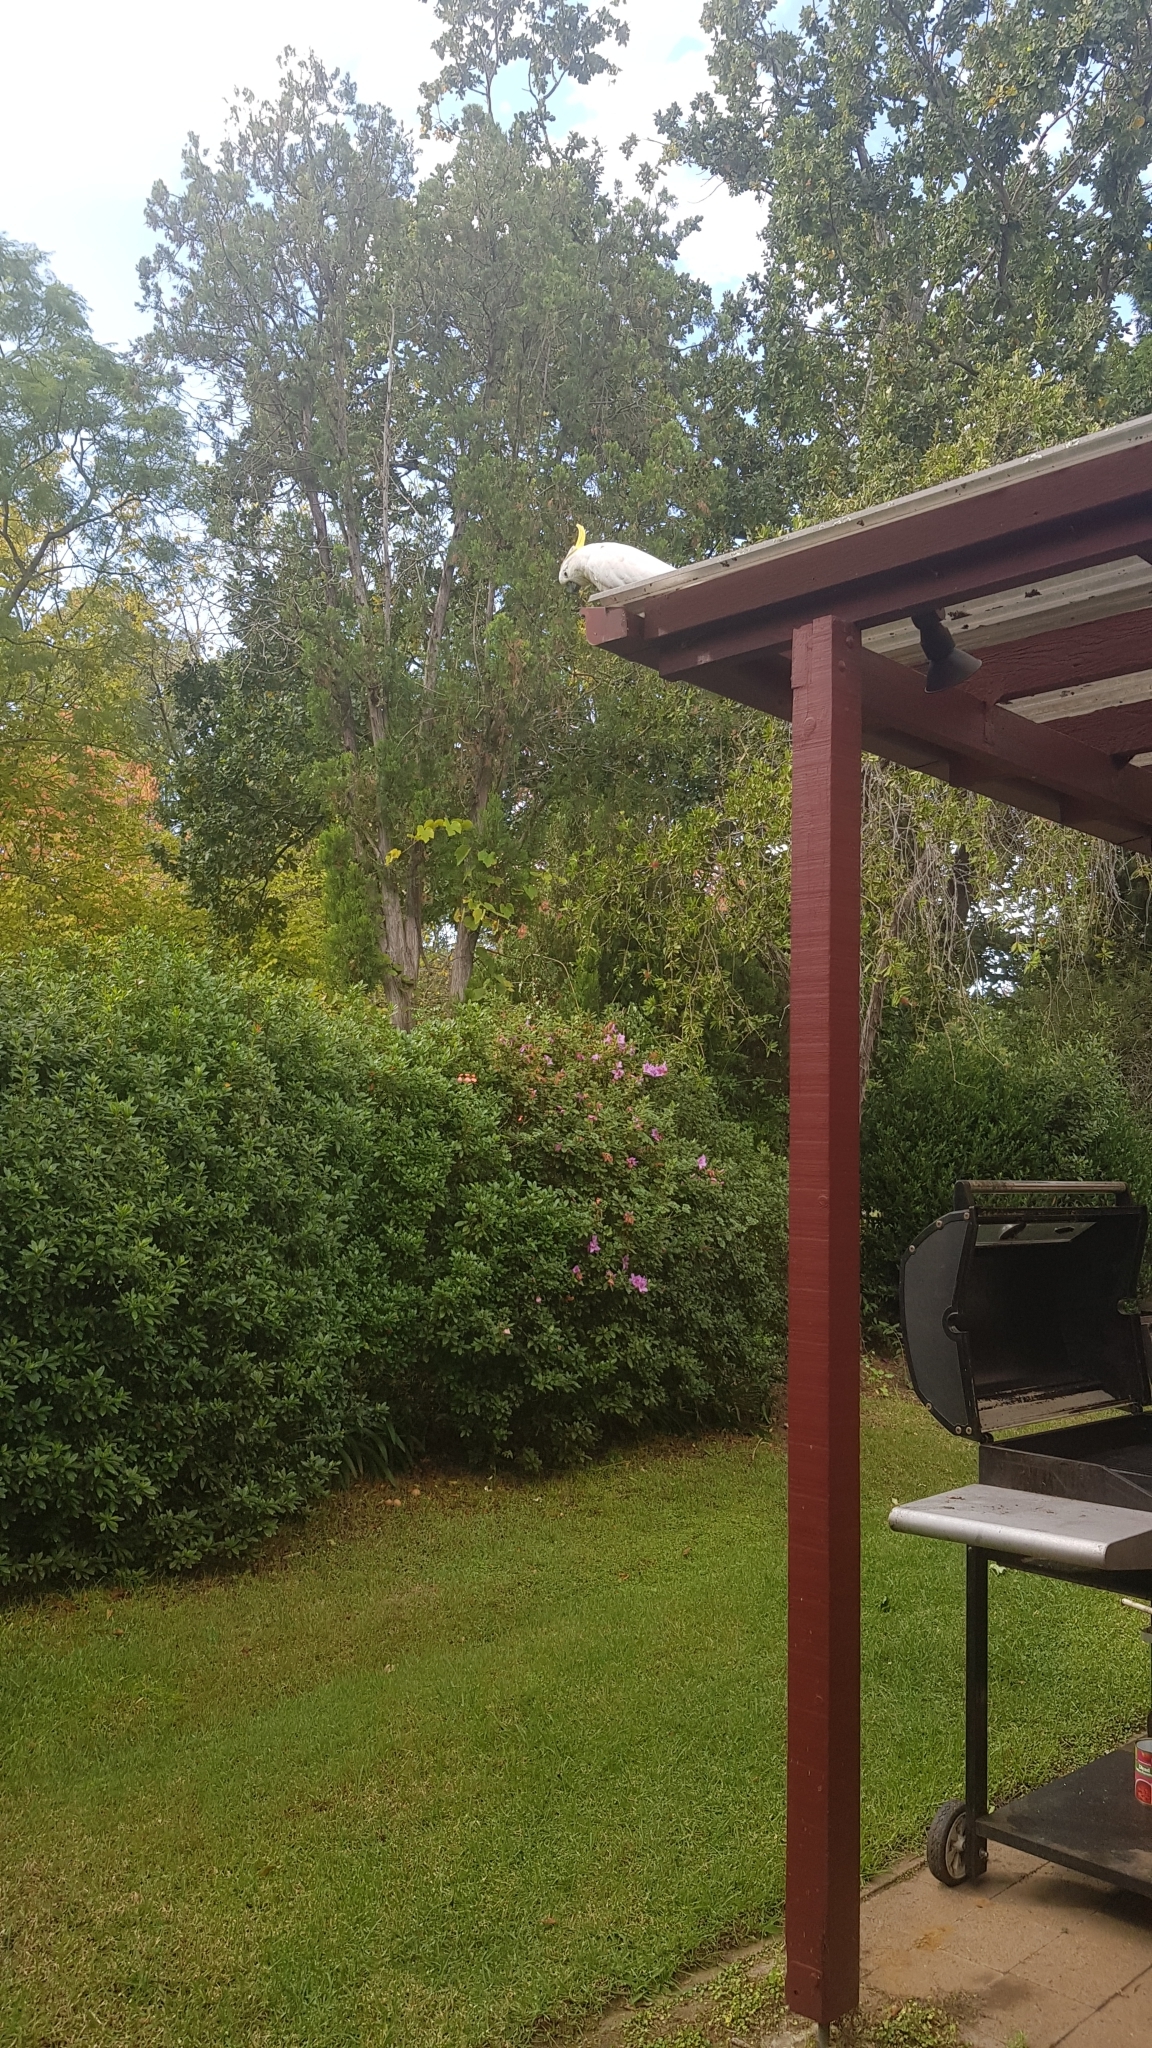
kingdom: Animalia
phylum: Chordata
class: Aves
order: Psittaciformes
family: Psittacidae
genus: Cacatua
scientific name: Cacatua galerita
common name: Sulphur-crested cockatoo
